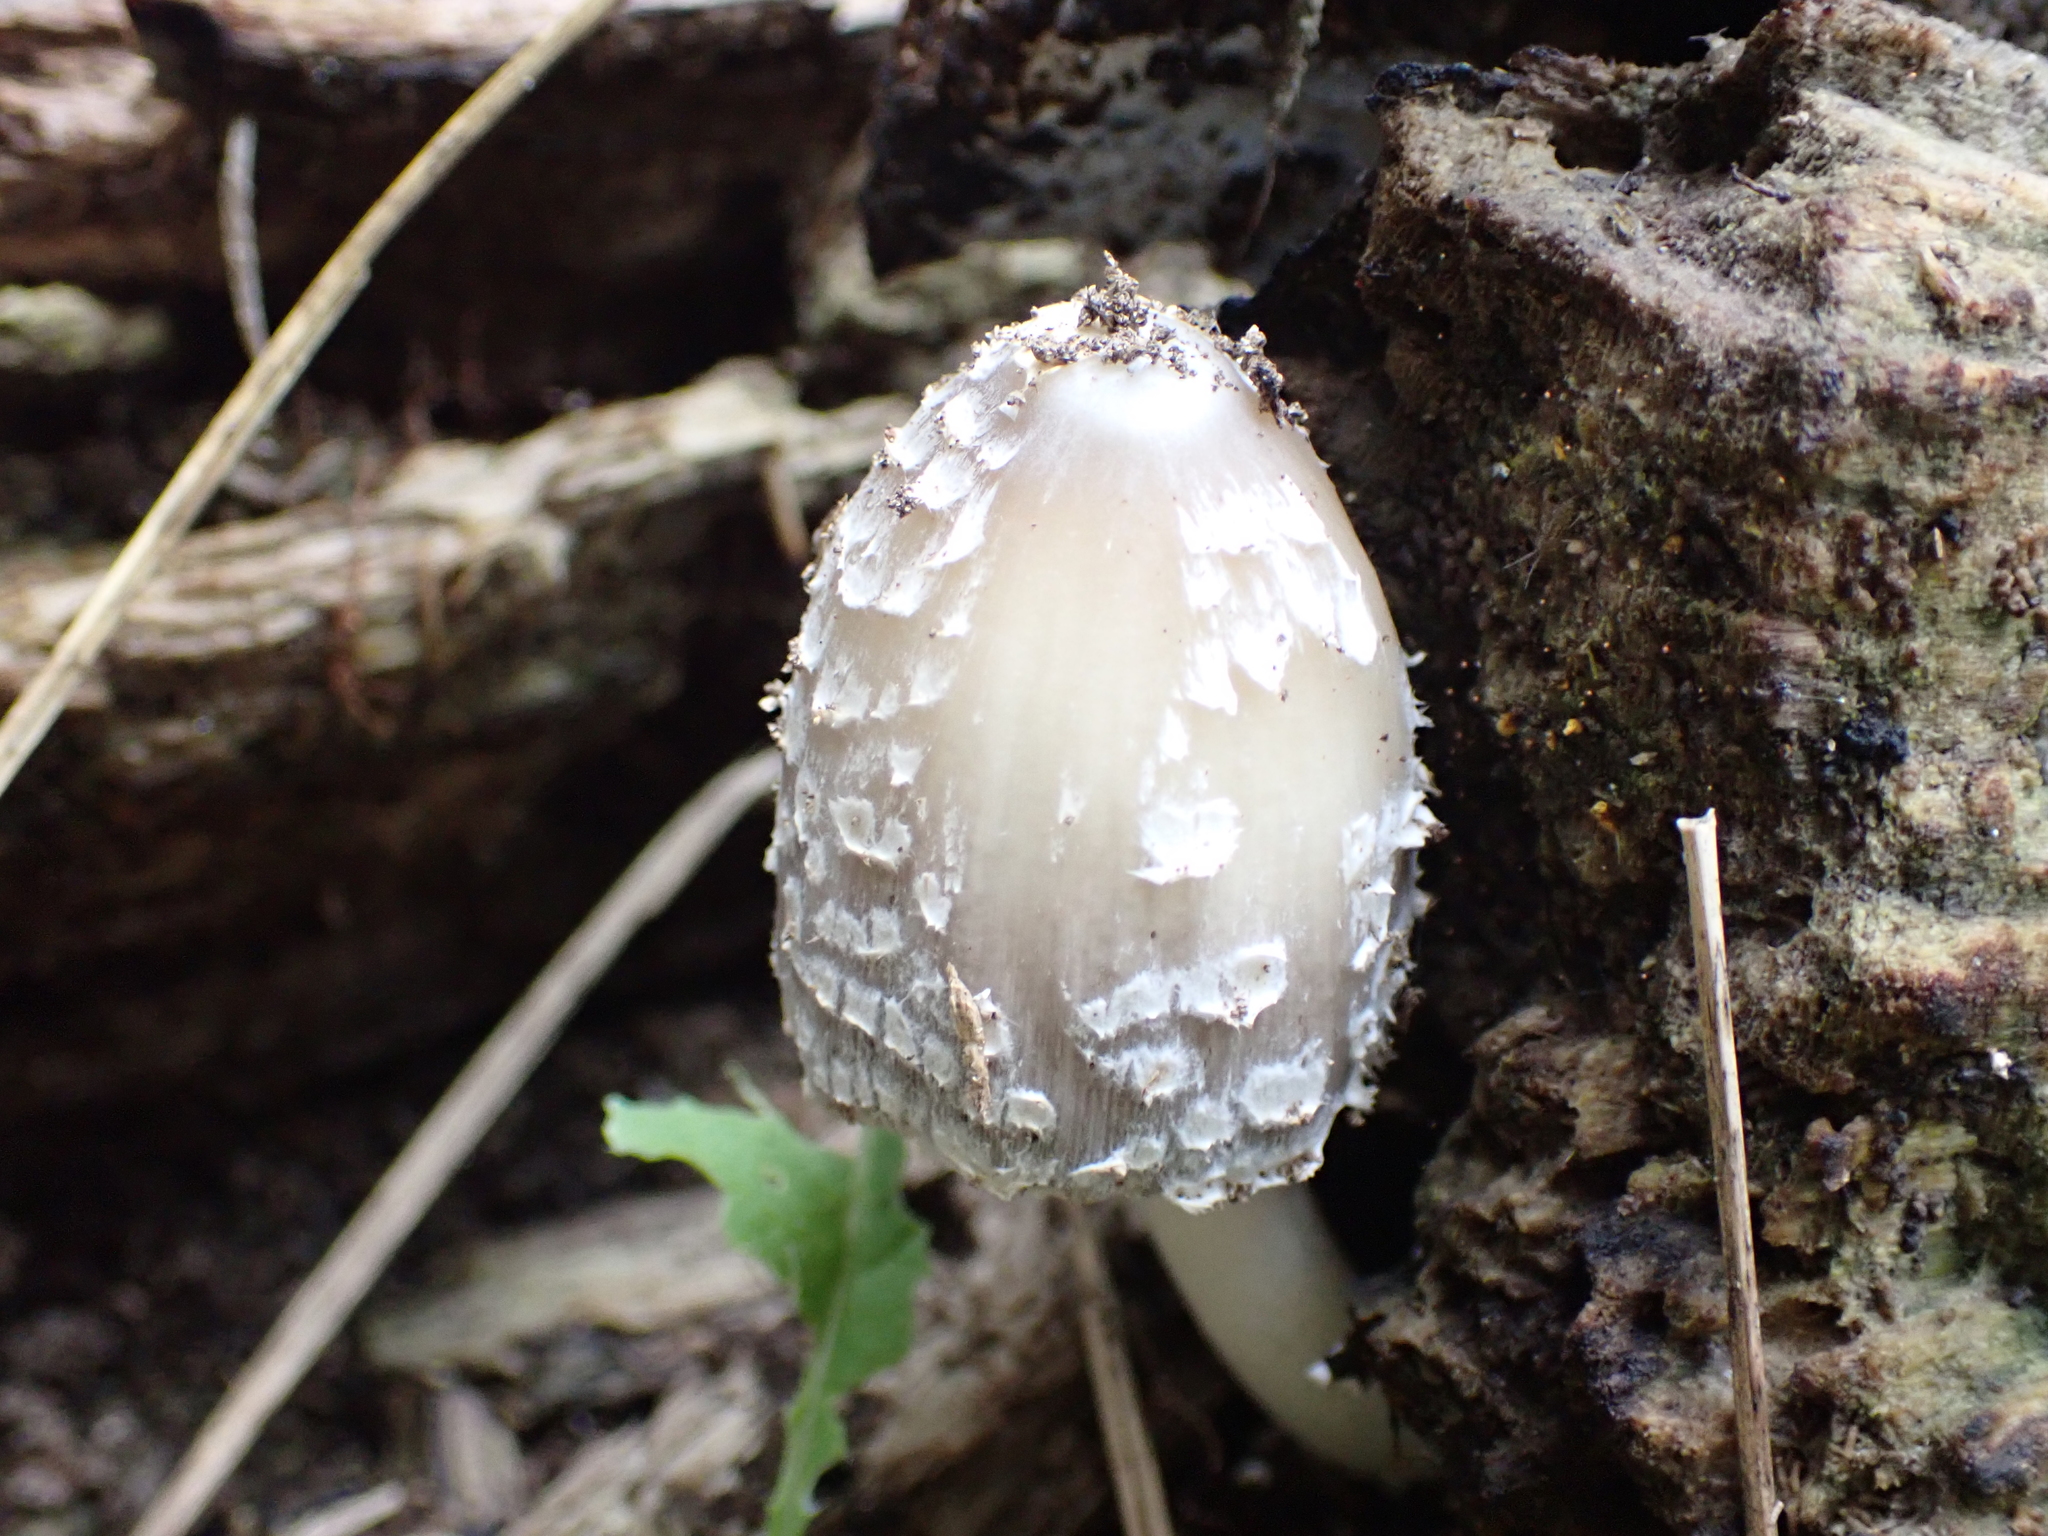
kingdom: Fungi
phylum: Basidiomycota
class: Agaricomycetes
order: Agaricales
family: Psathyrellaceae
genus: Coprinopsis
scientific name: Coprinopsis variegata
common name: Scaly ink cap
